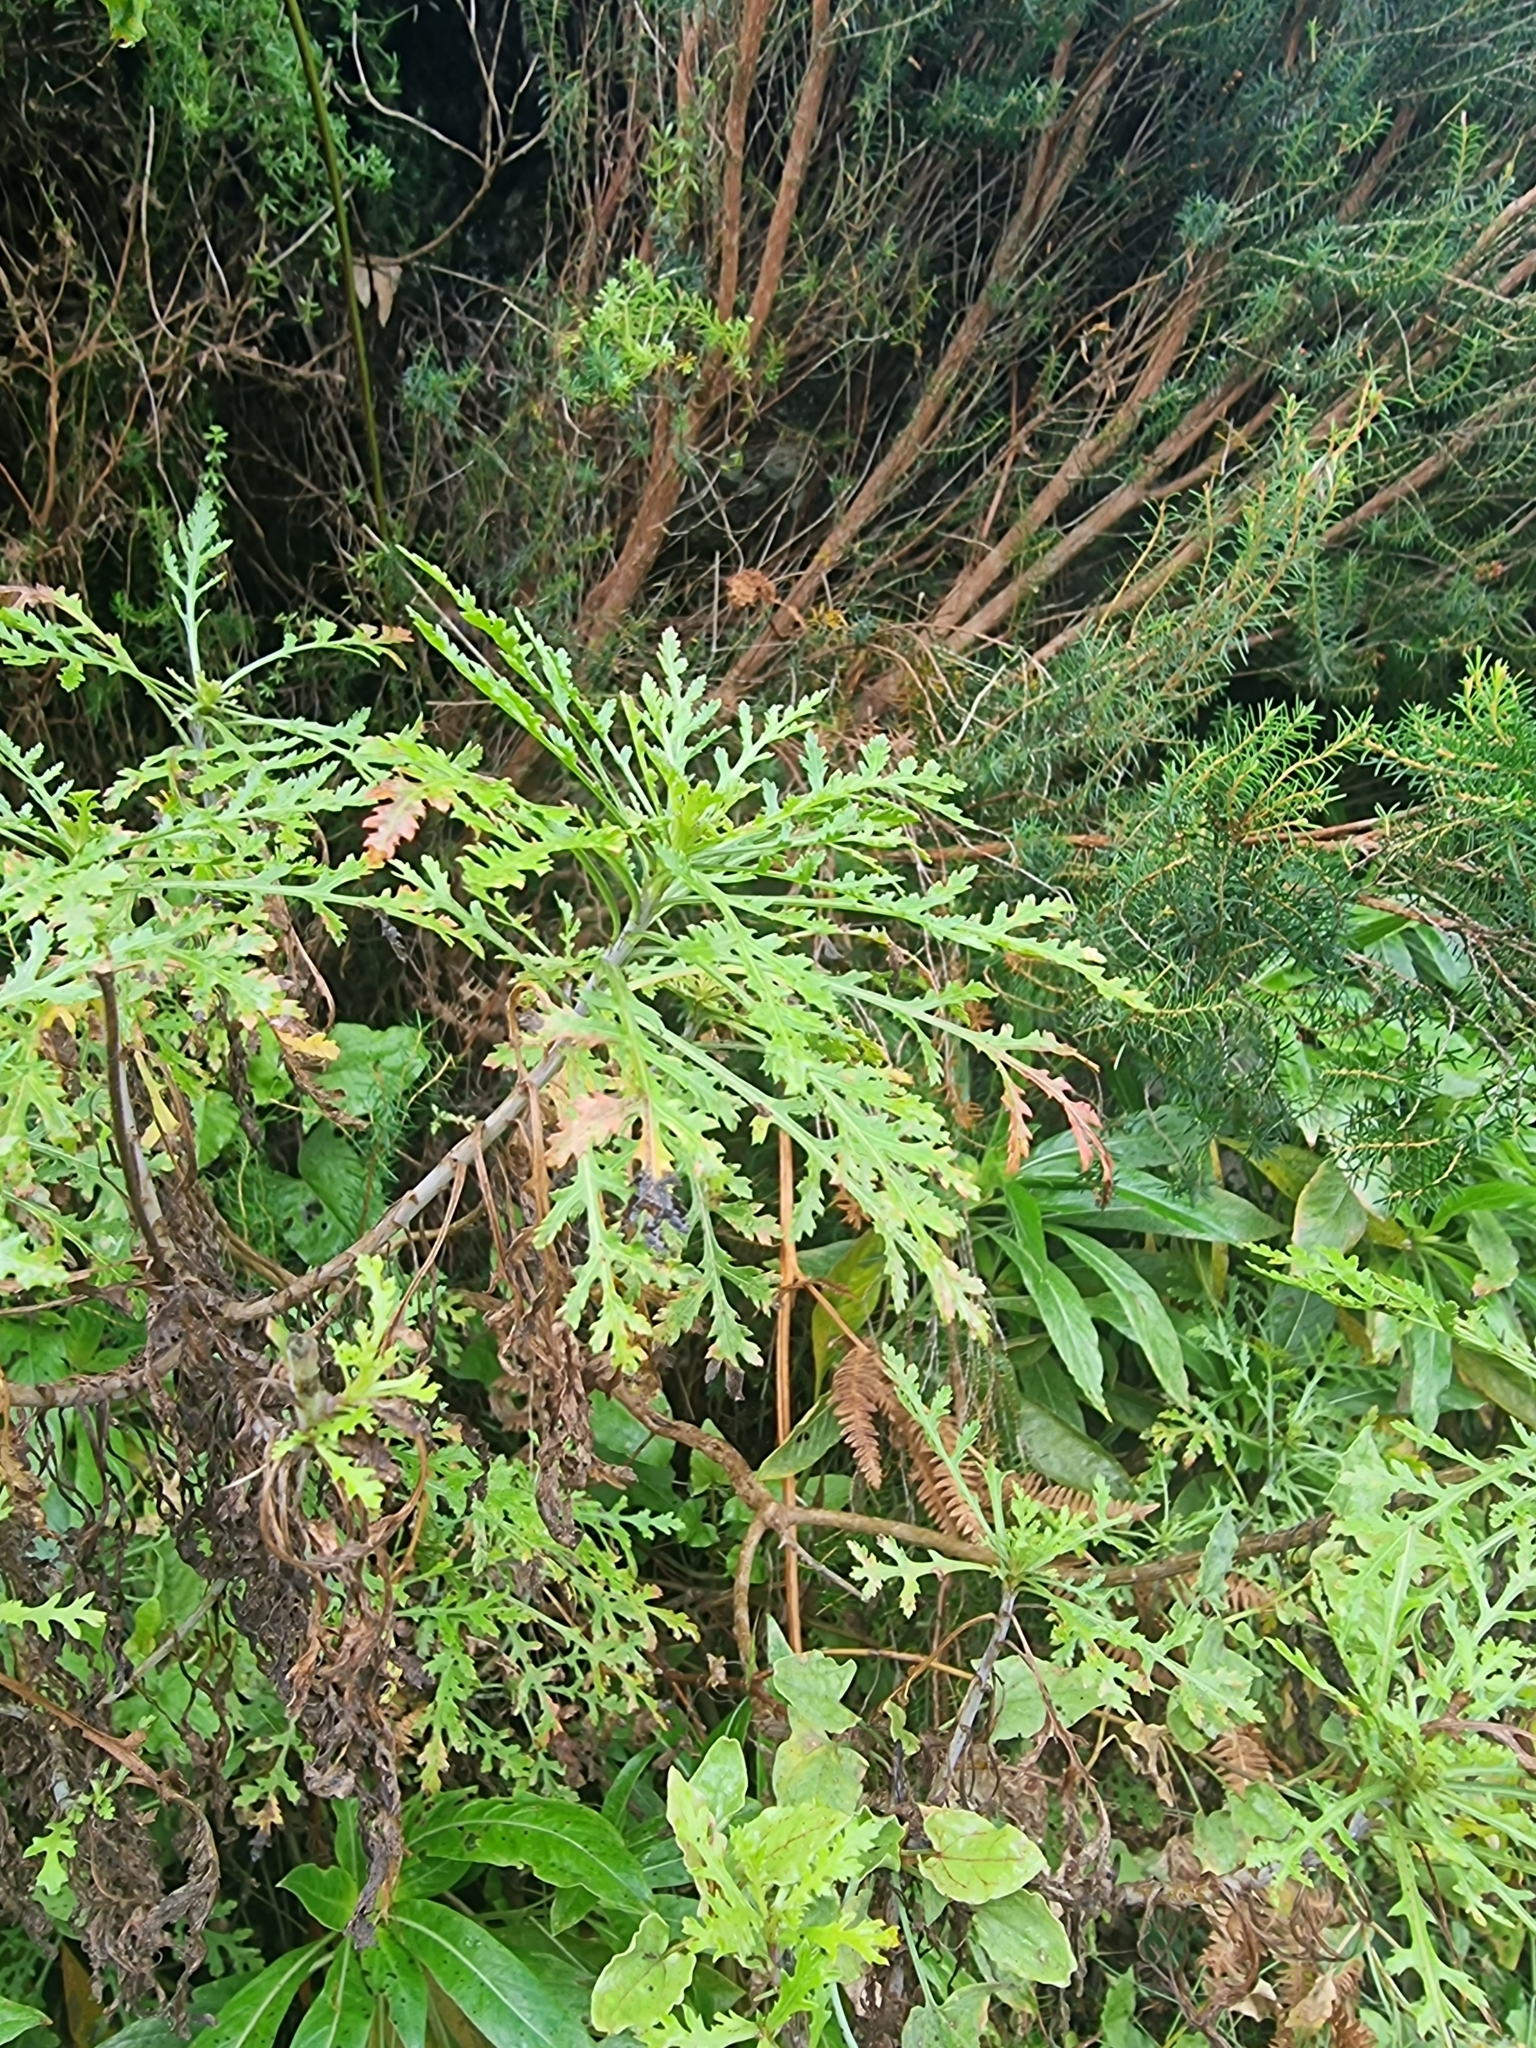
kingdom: Plantae
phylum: Tracheophyta
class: Magnoliopsida
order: Asterales
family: Asteraceae
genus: Argyranthemum
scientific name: Argyranthemum dissectum
